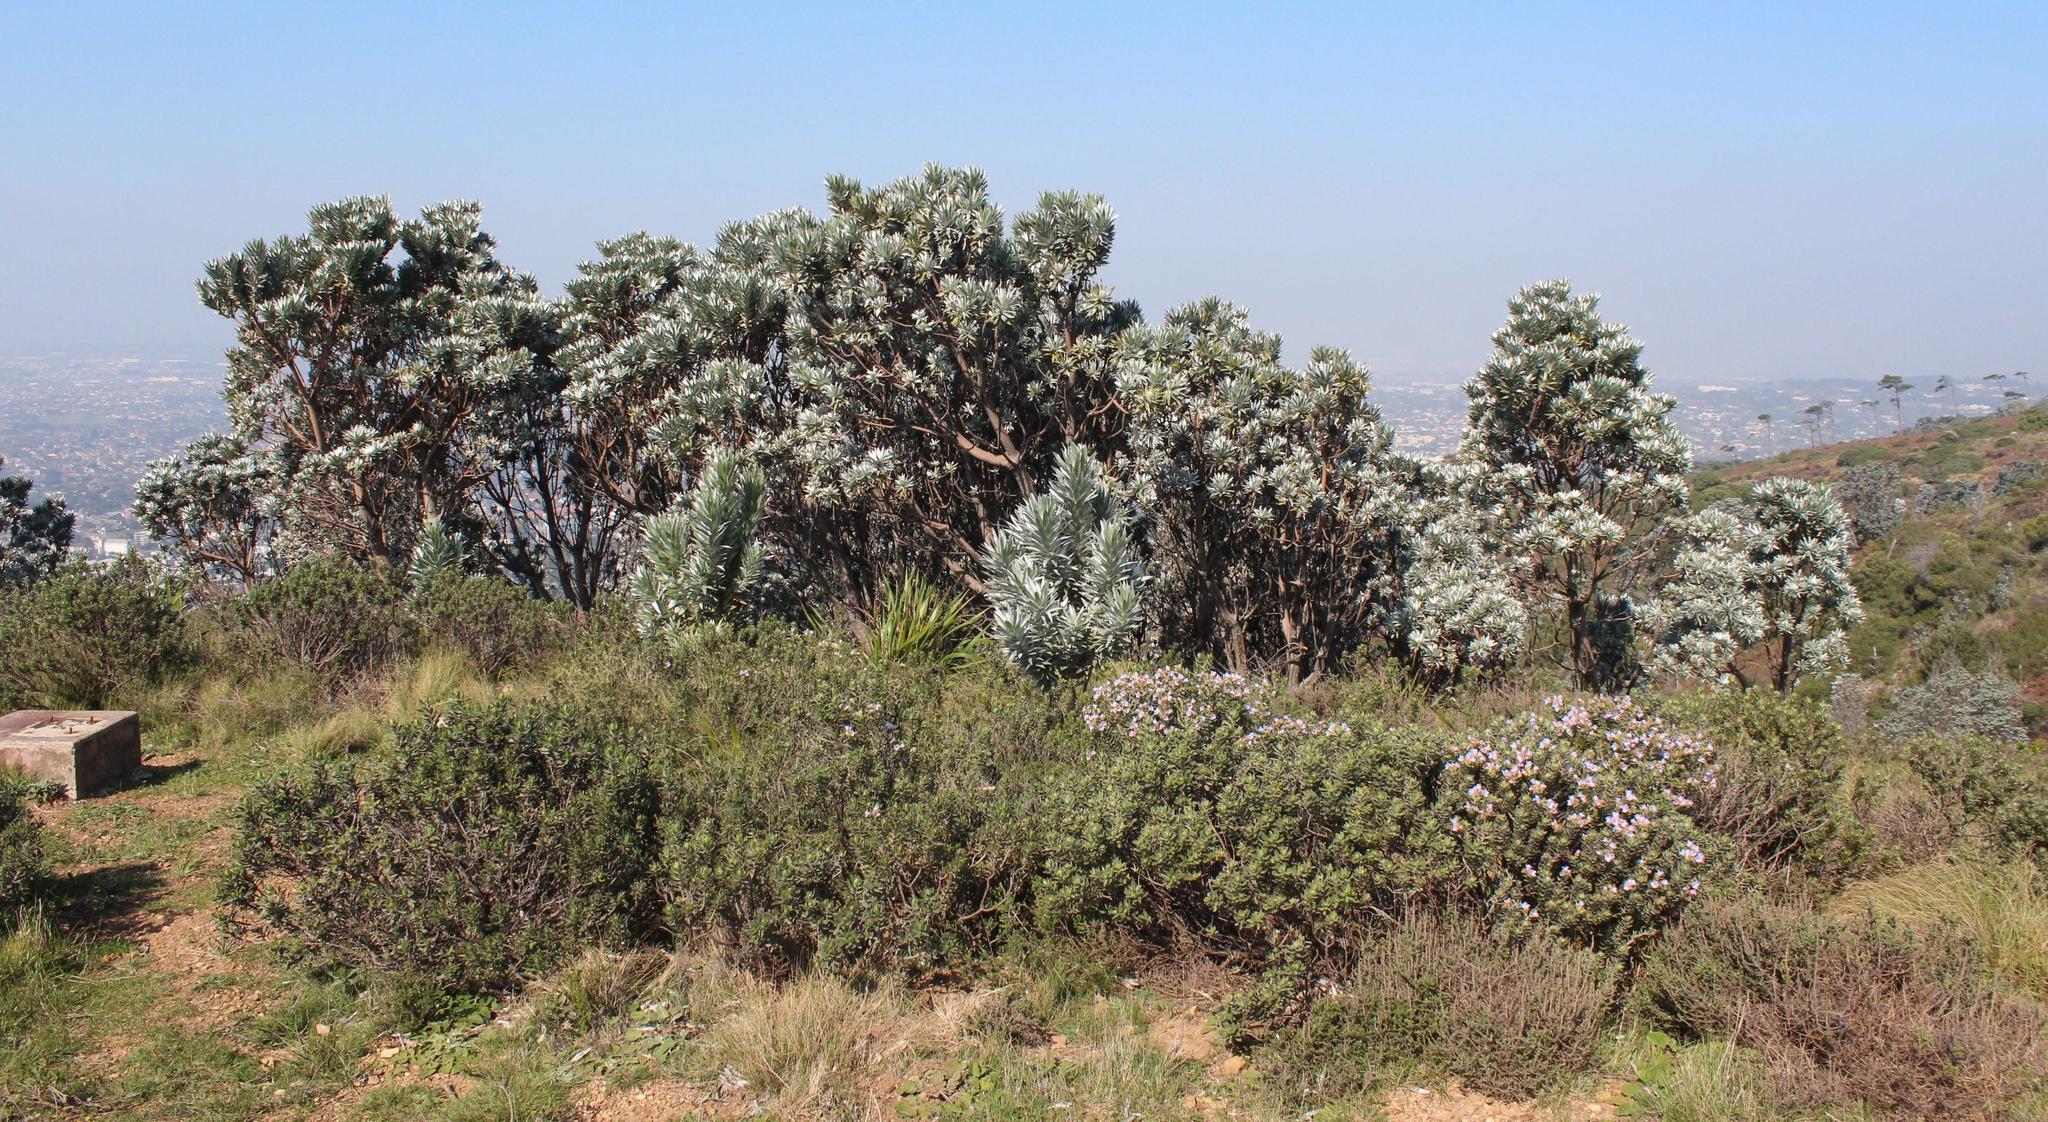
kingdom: Plantae
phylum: Tracheophyta
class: Magnoliopsida
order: Proteales
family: Proteaceae
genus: Leucadendron
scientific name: Leucadendron argenteum
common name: Cape silver tree
